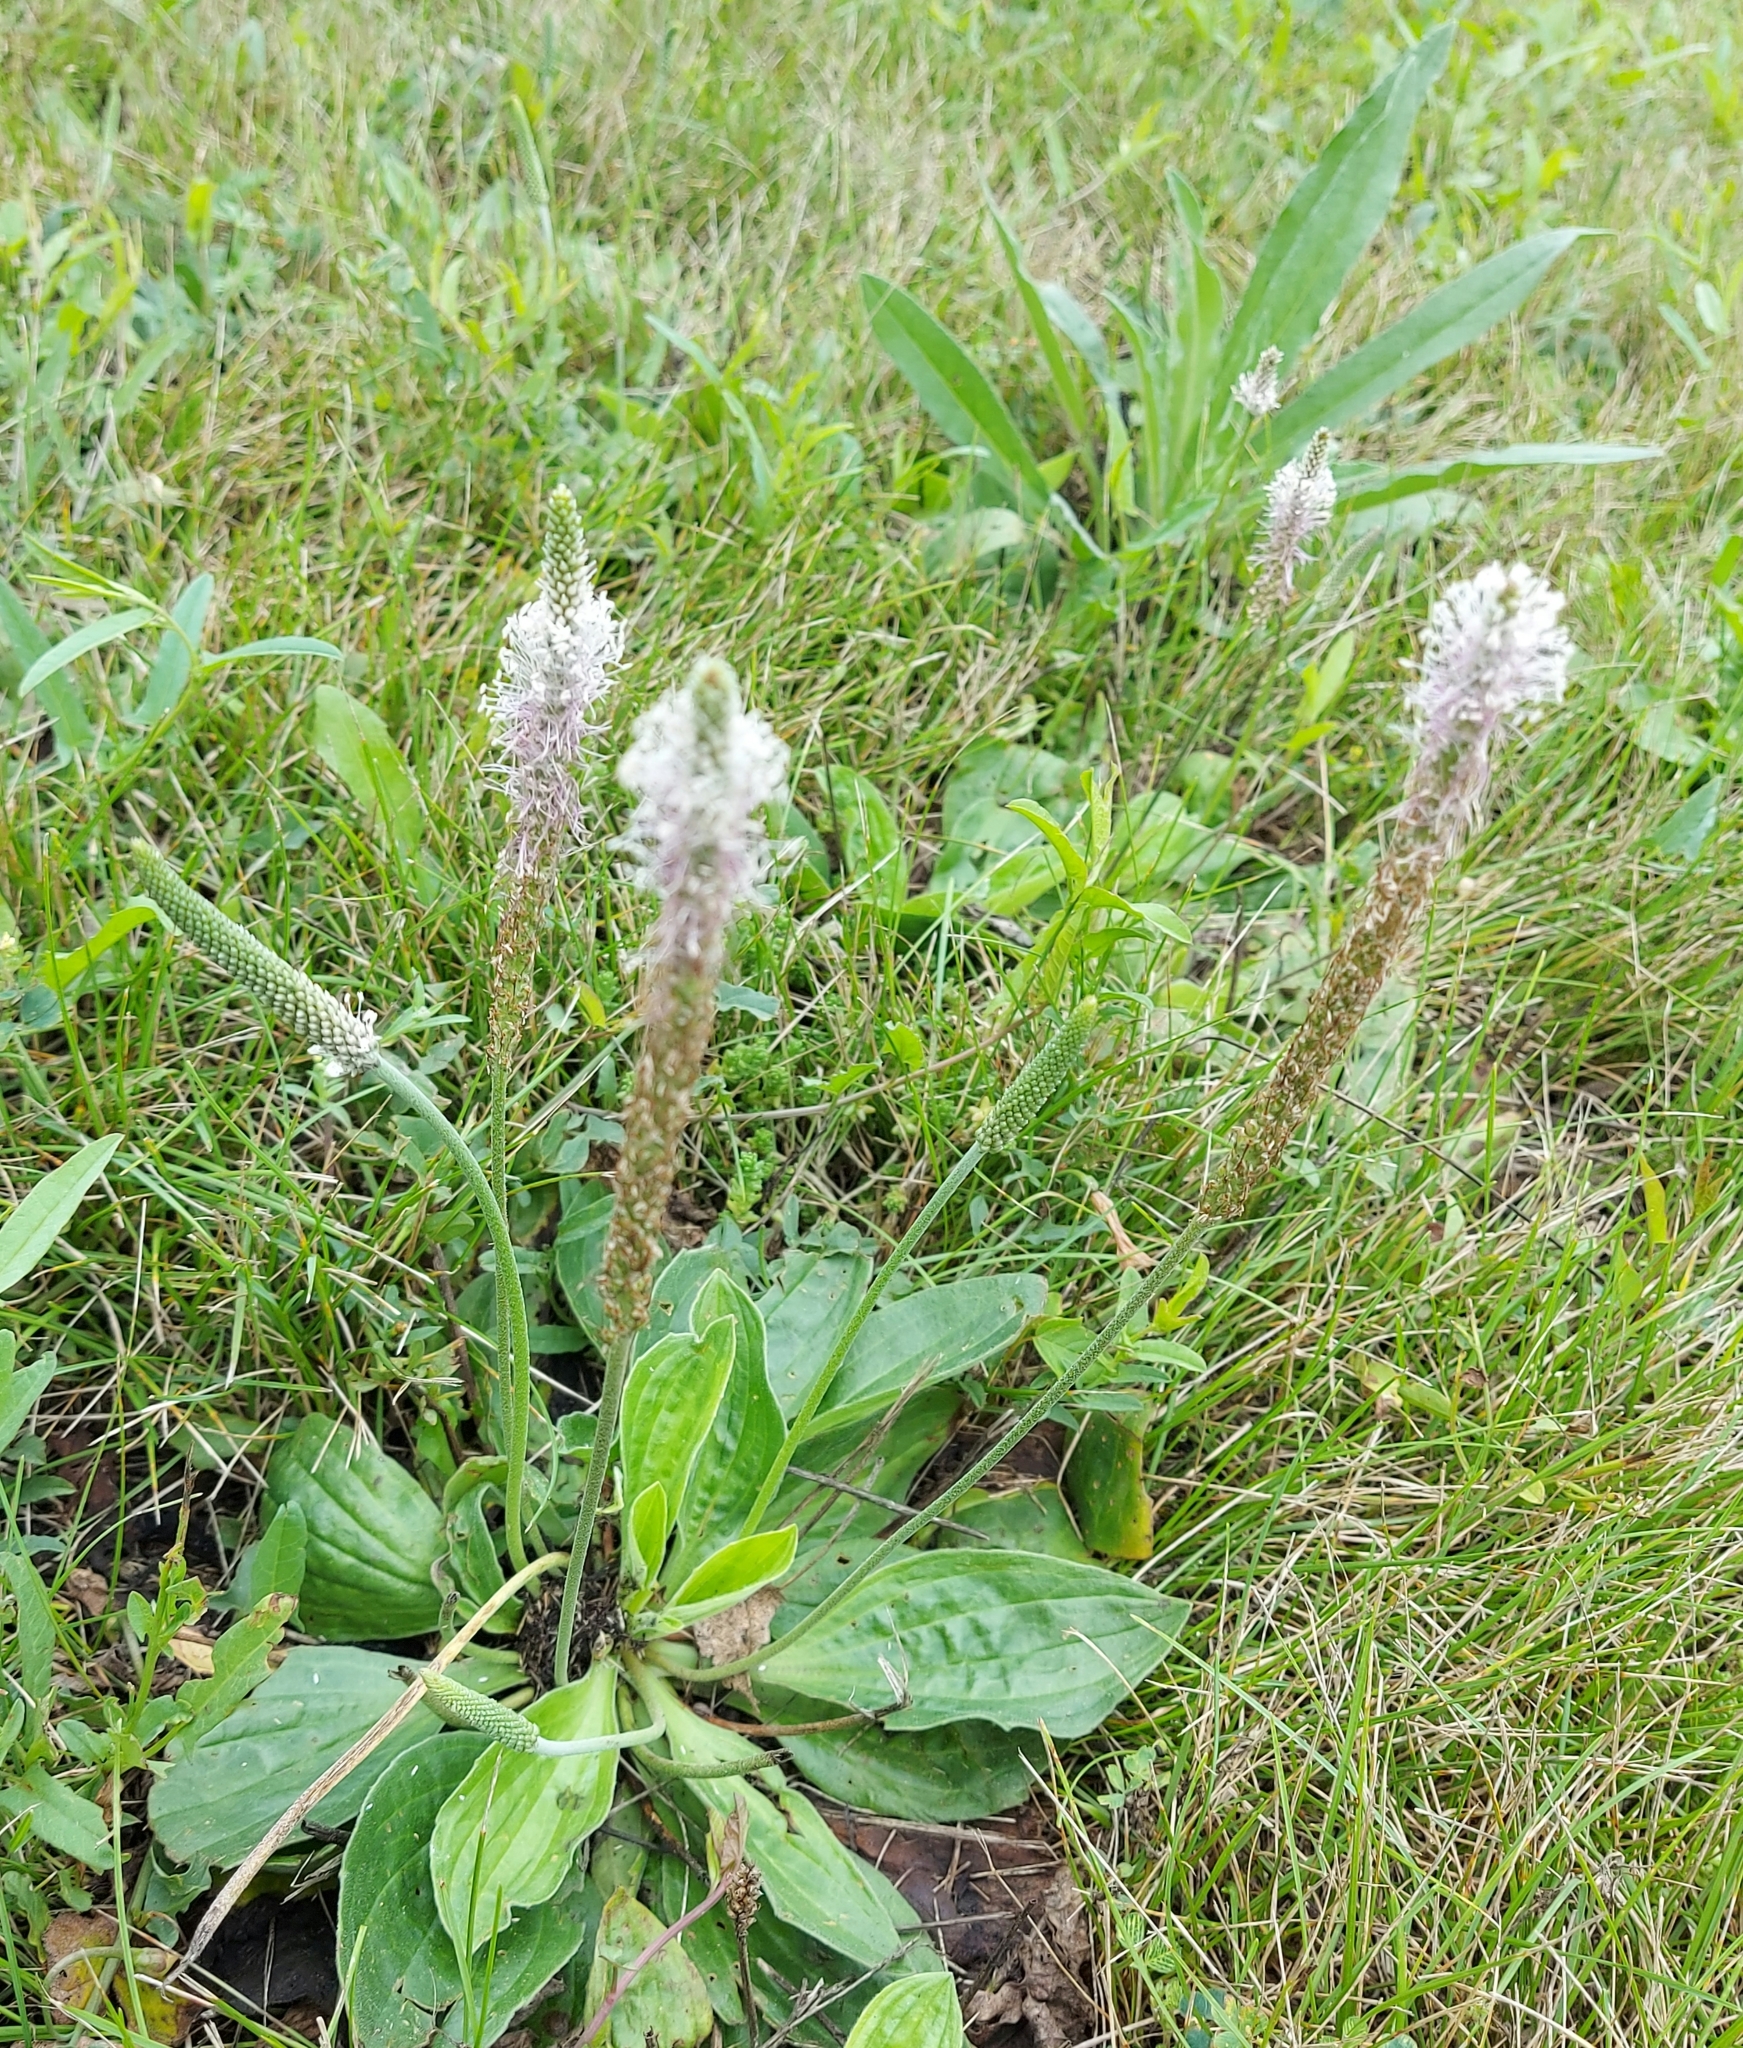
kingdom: Plantae
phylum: Tracheophyta
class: Magnoliopsida
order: Lamiales
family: Plantaginaceae
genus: Plantago
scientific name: Plantago media
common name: Hoary plantain
